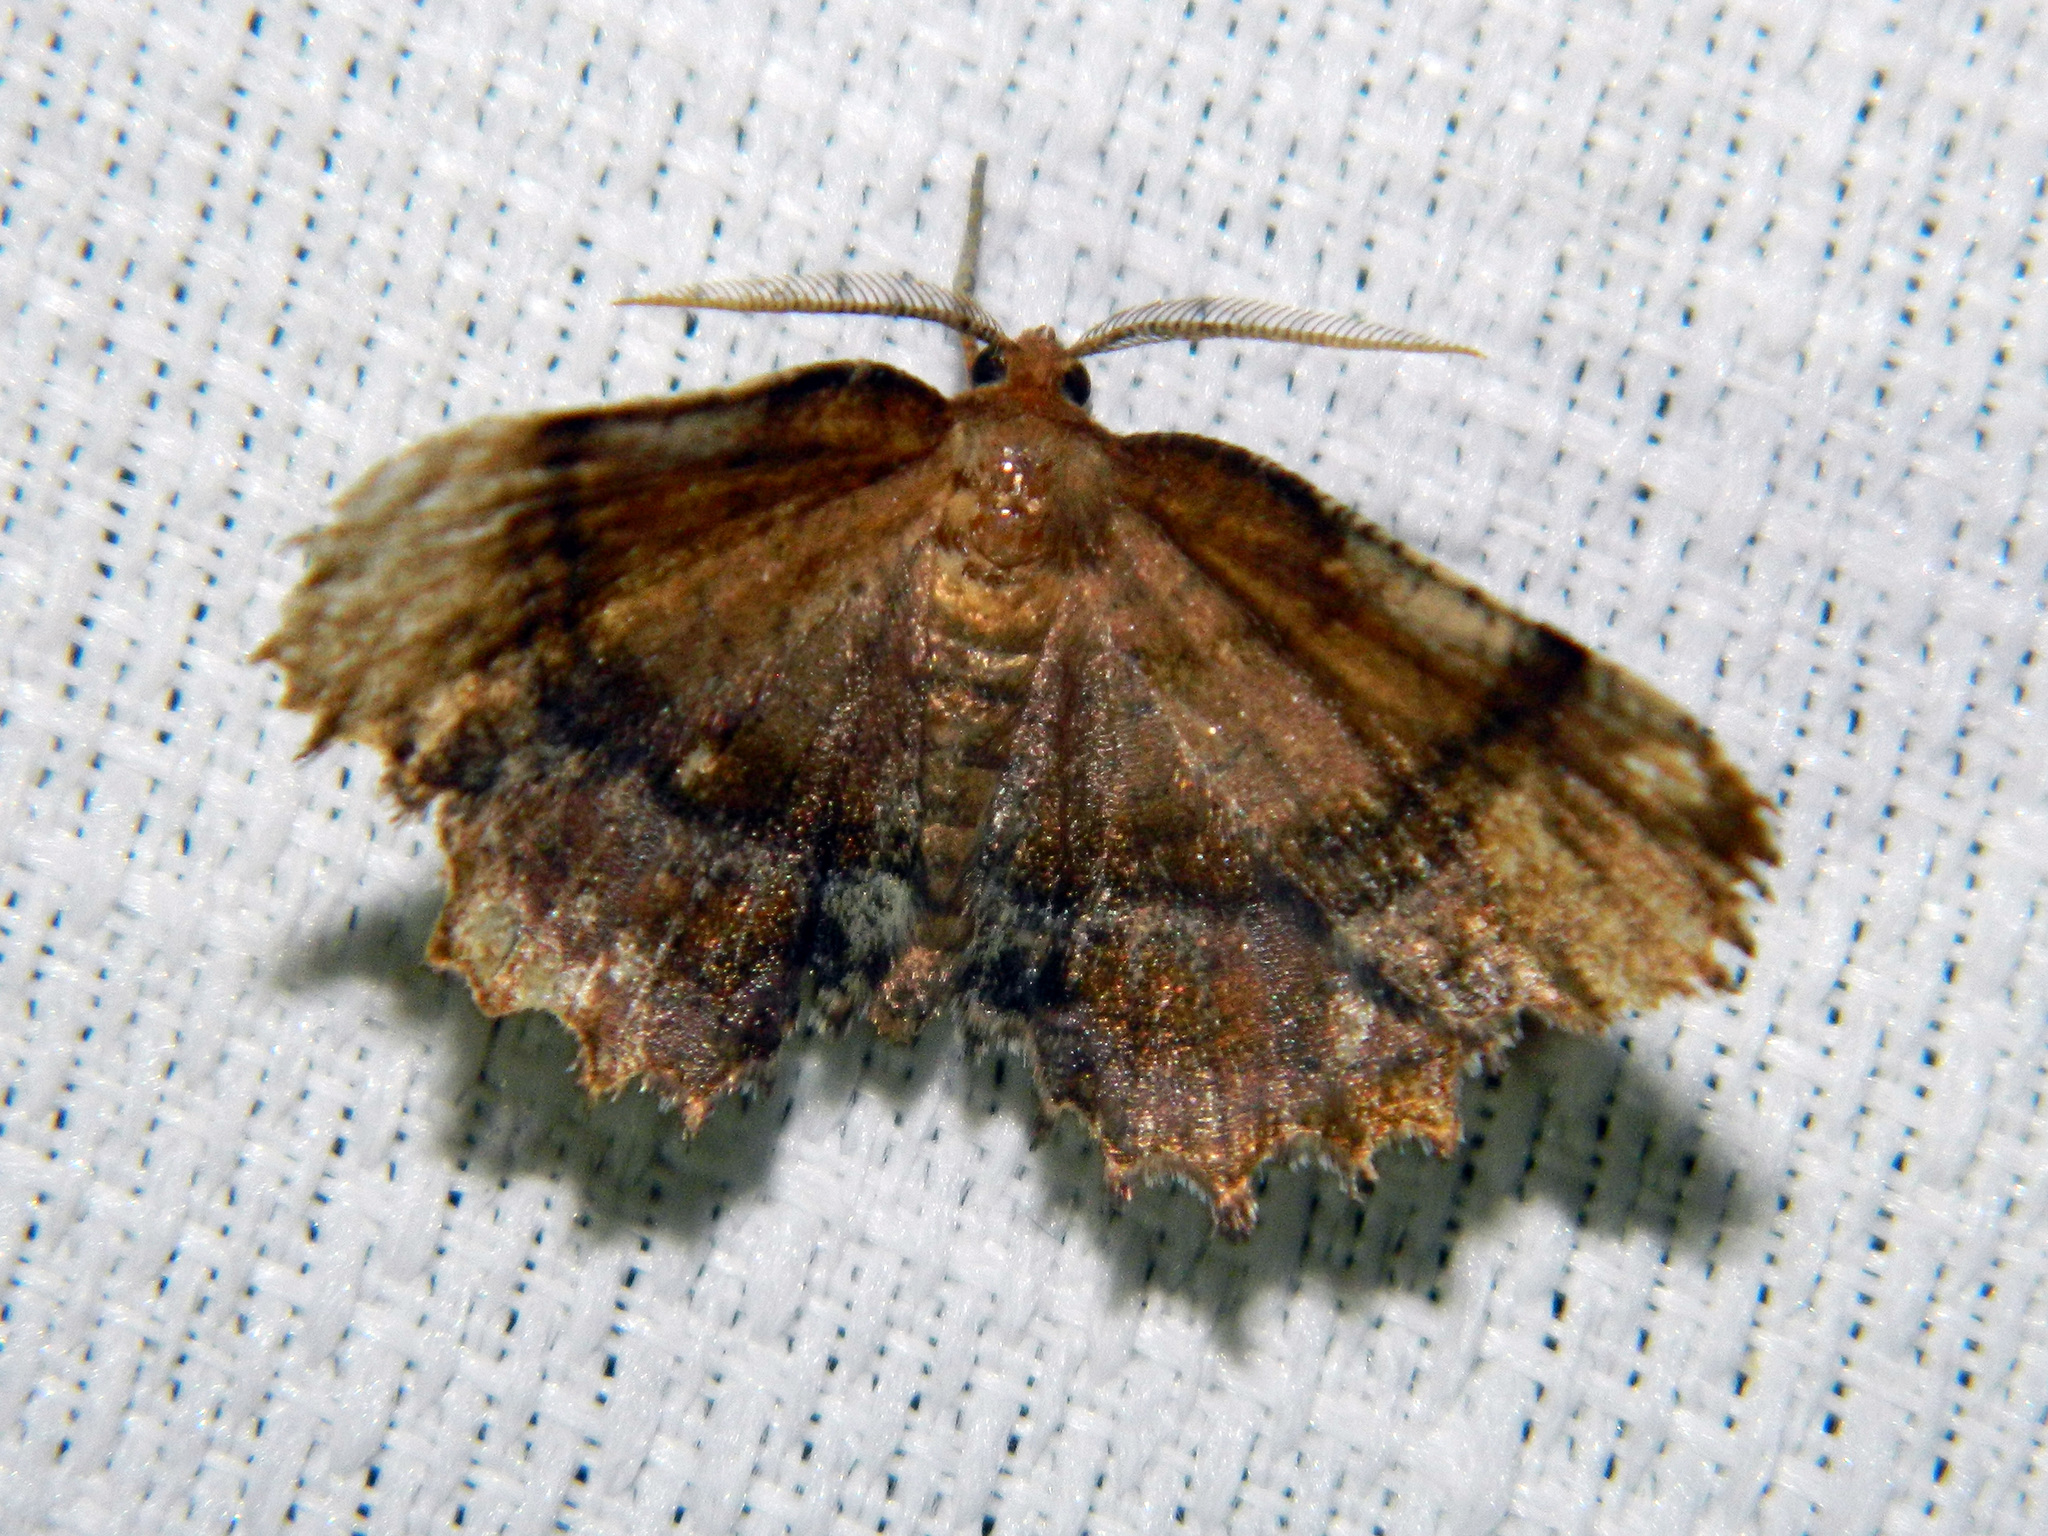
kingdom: Animalia
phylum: Arthropoda
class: Insecta
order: Lepidoptera
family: Geometridae
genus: Cepphis
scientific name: Cepphis armataria
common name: Scallop moth
